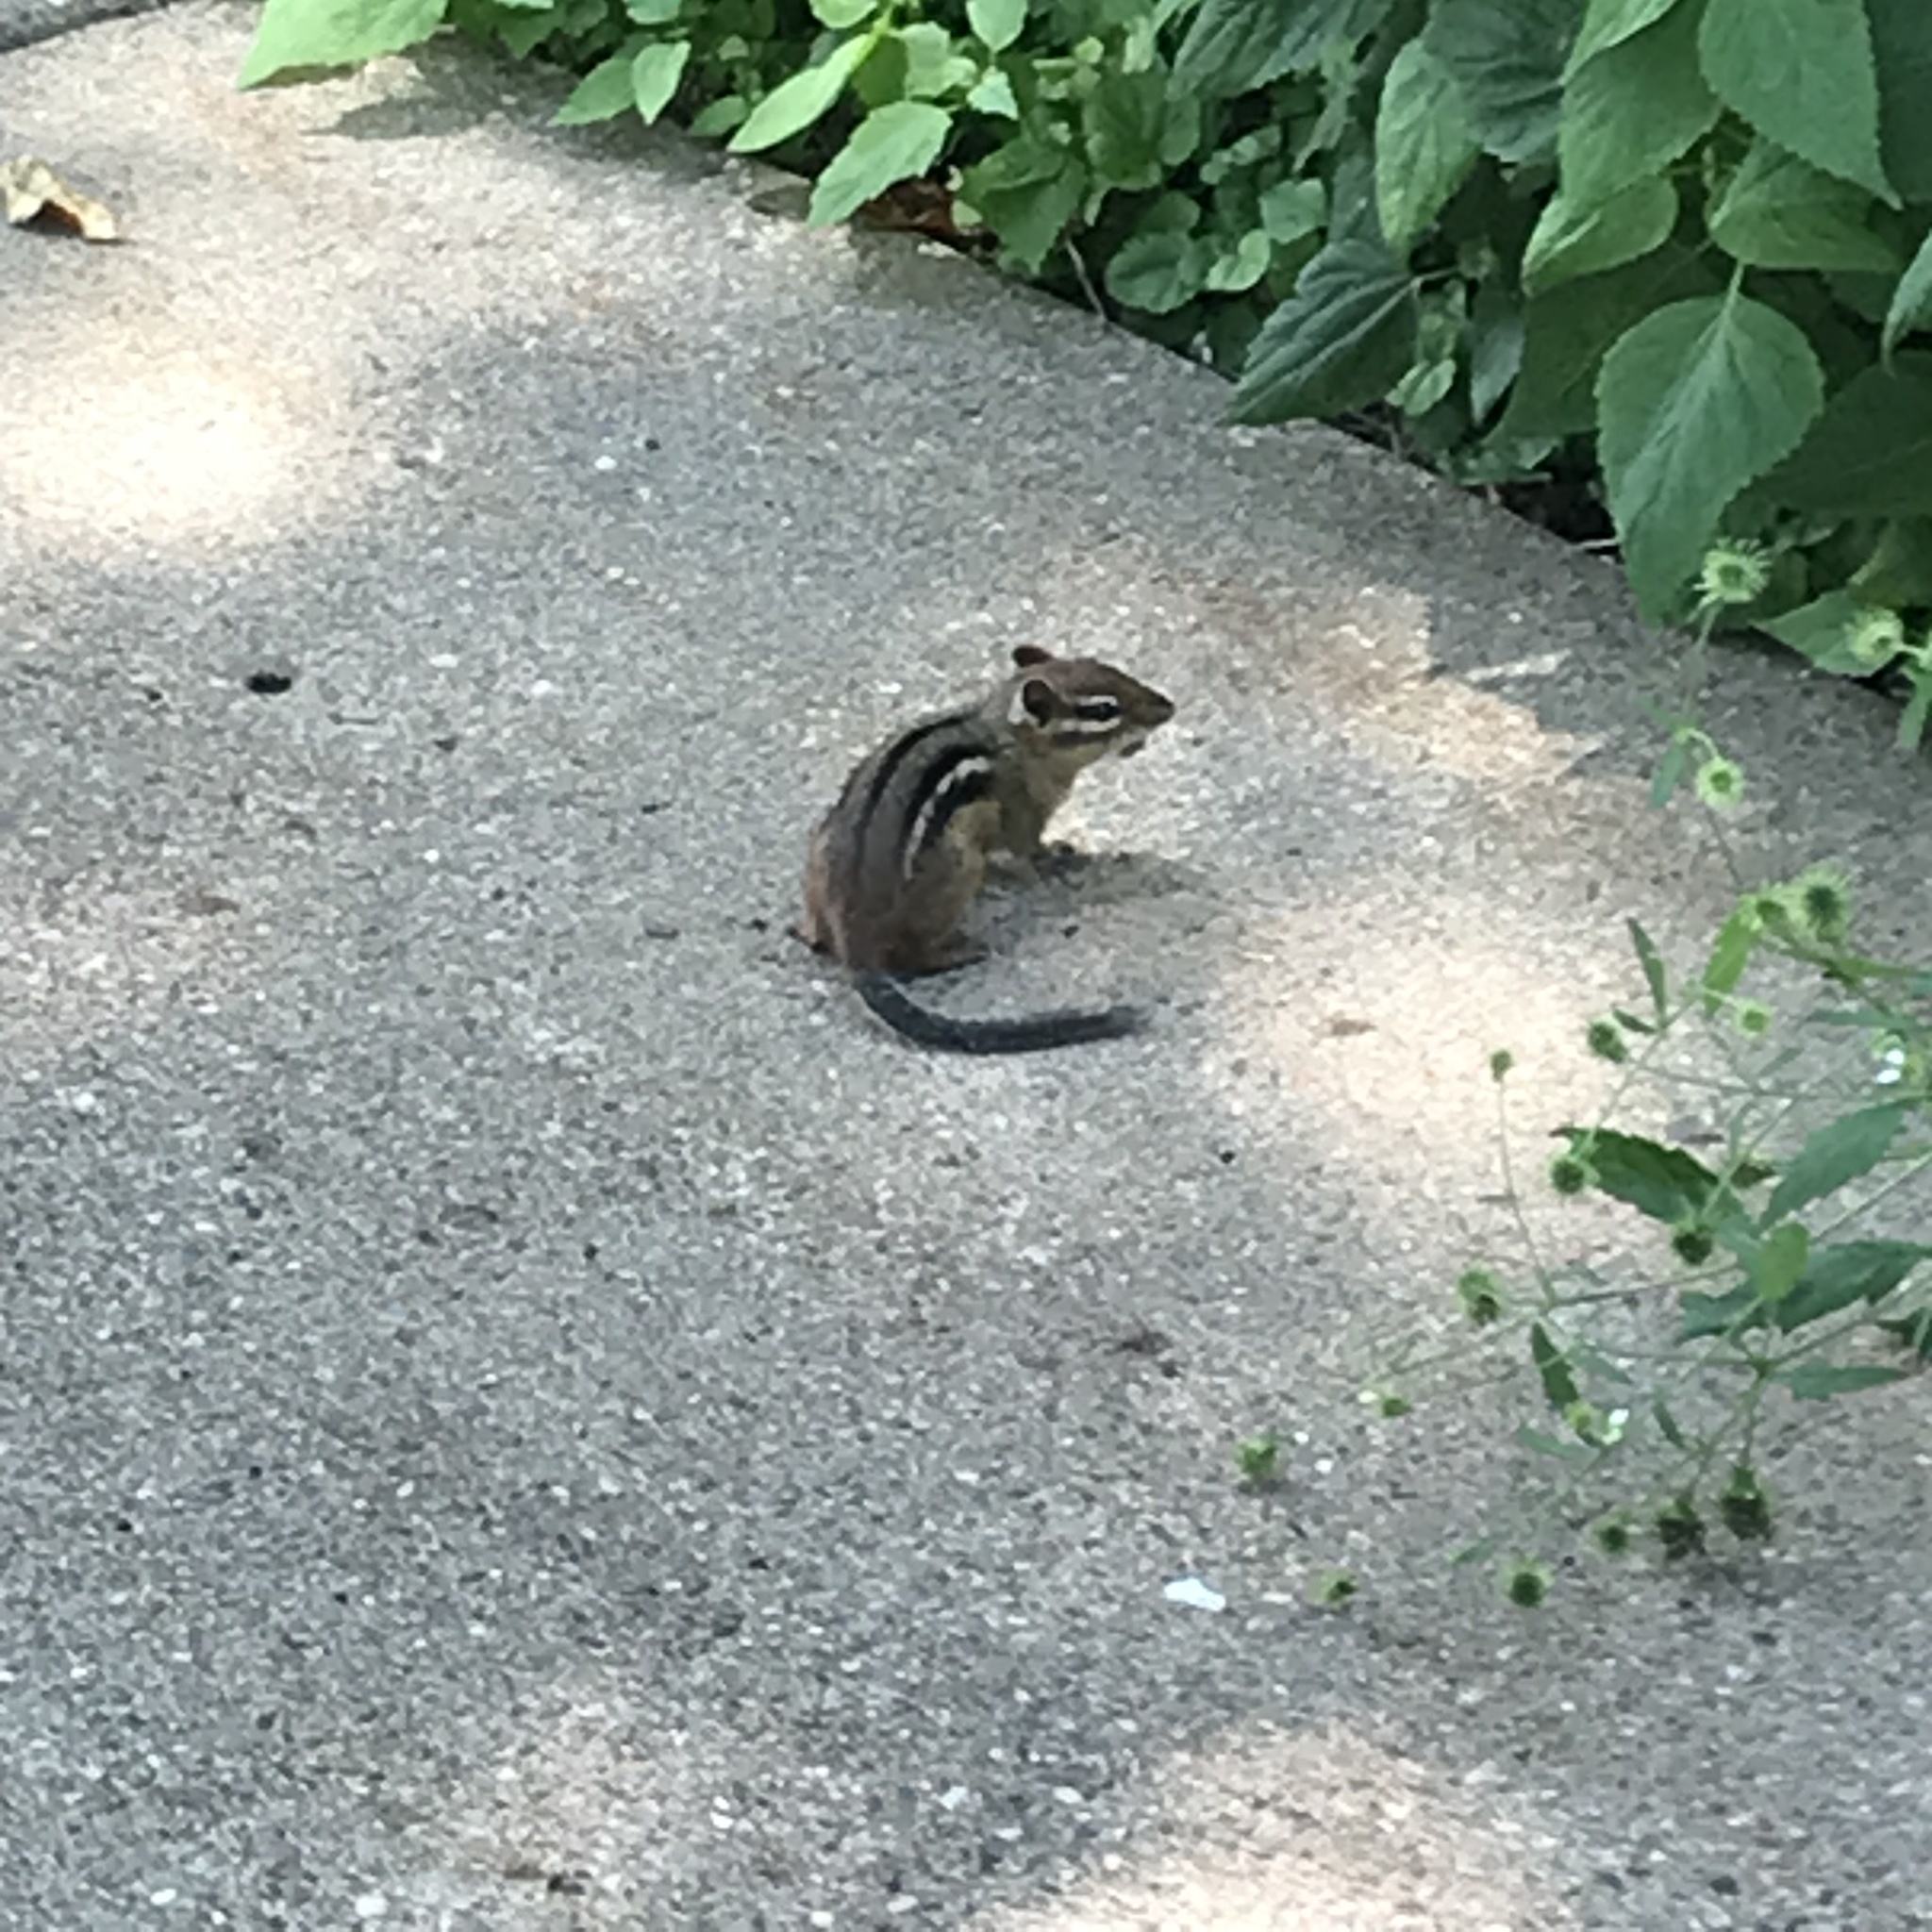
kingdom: Animalia
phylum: Chordata
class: Mammalia
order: Rodentia
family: Sciuridae
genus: Tamias
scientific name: Tamias striatus
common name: Eastern chipmunk
